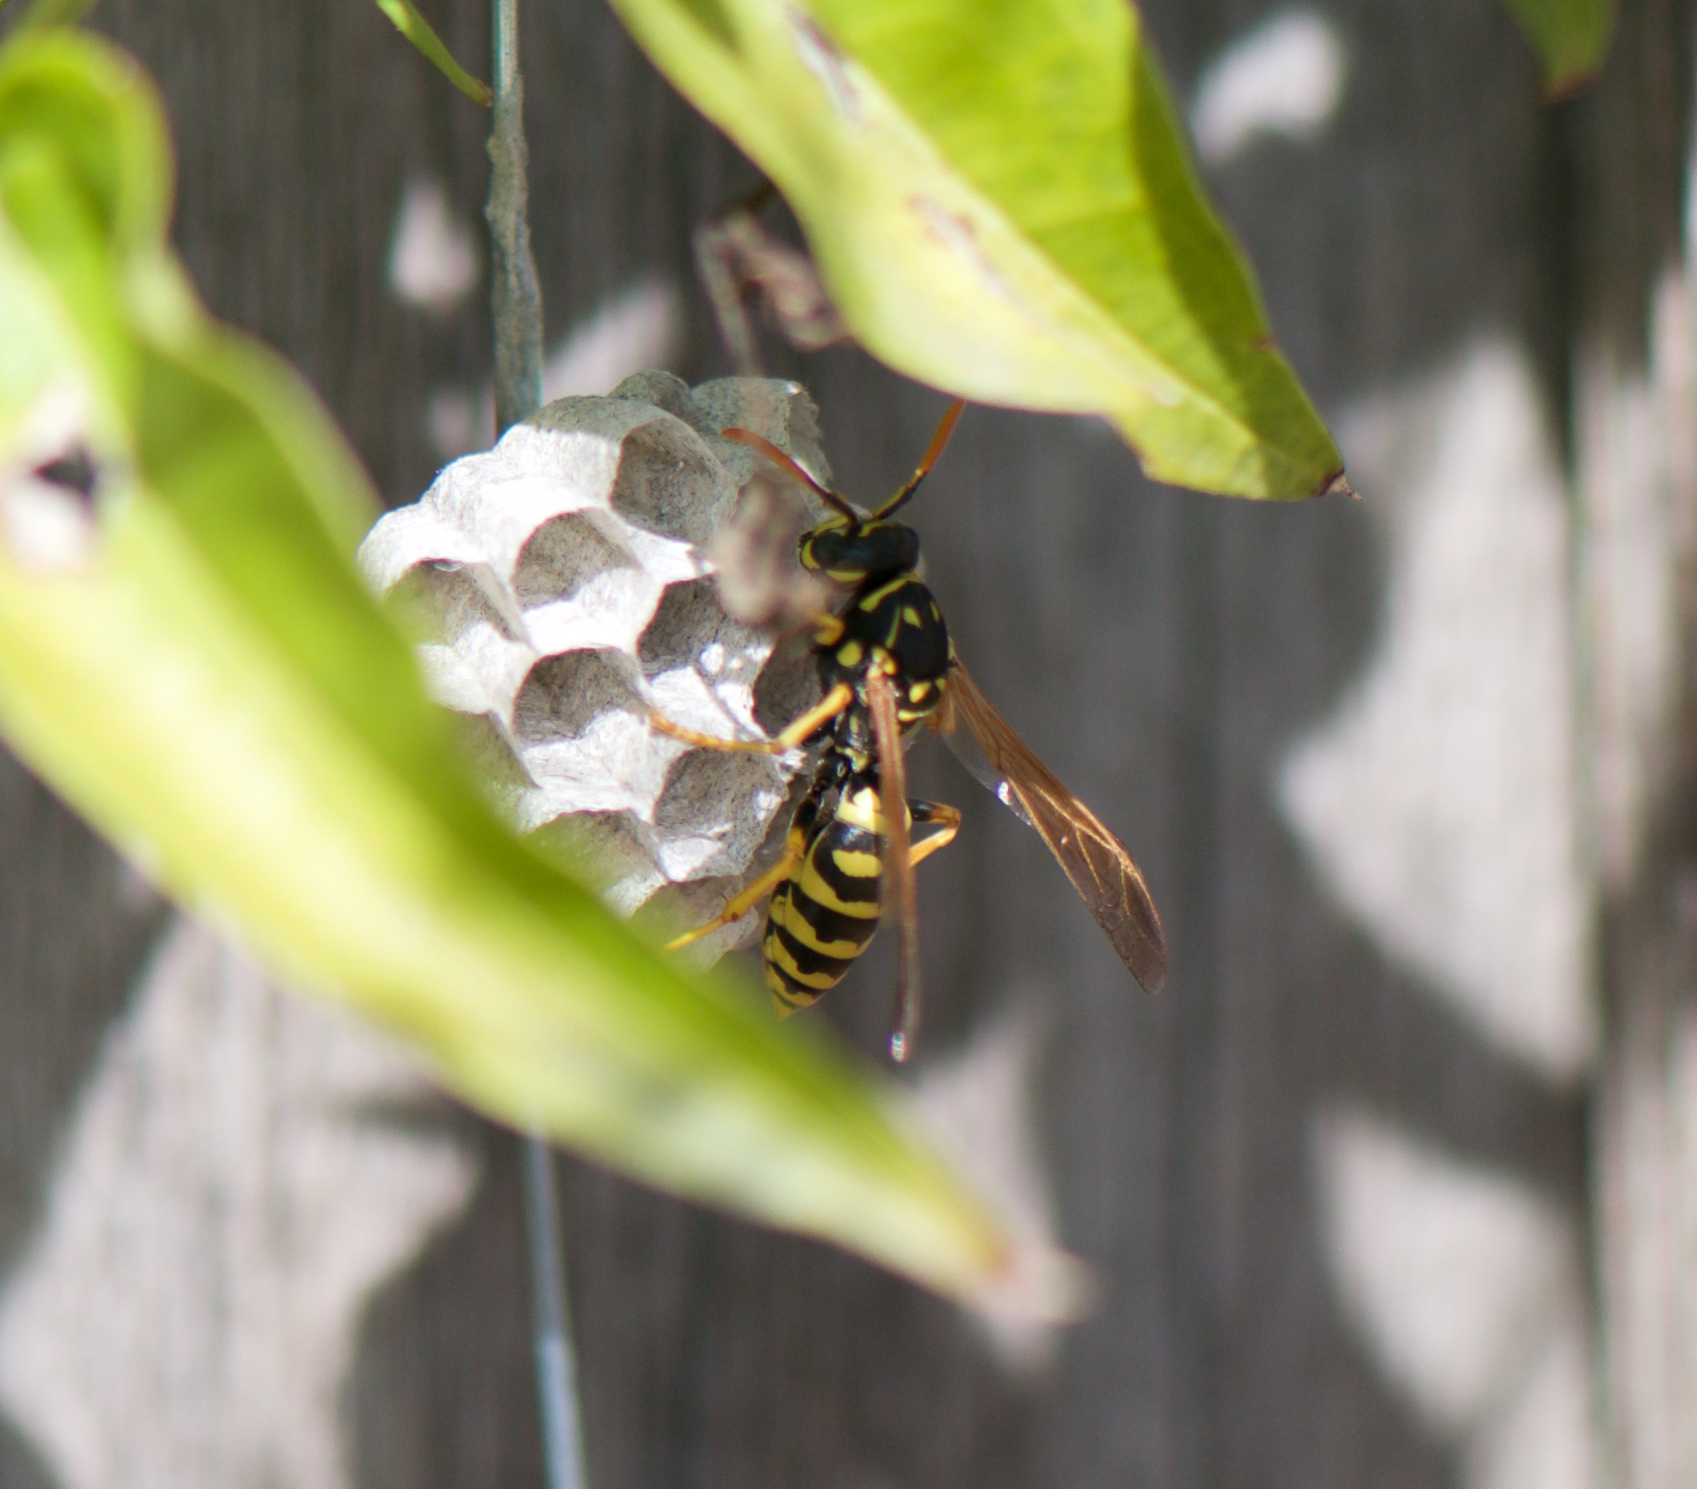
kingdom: Animalia
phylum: Arthropoda
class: Insecta
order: Hymenoptera
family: Eumenidae
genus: Polistes
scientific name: Polistes dominula
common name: Paper wasp
